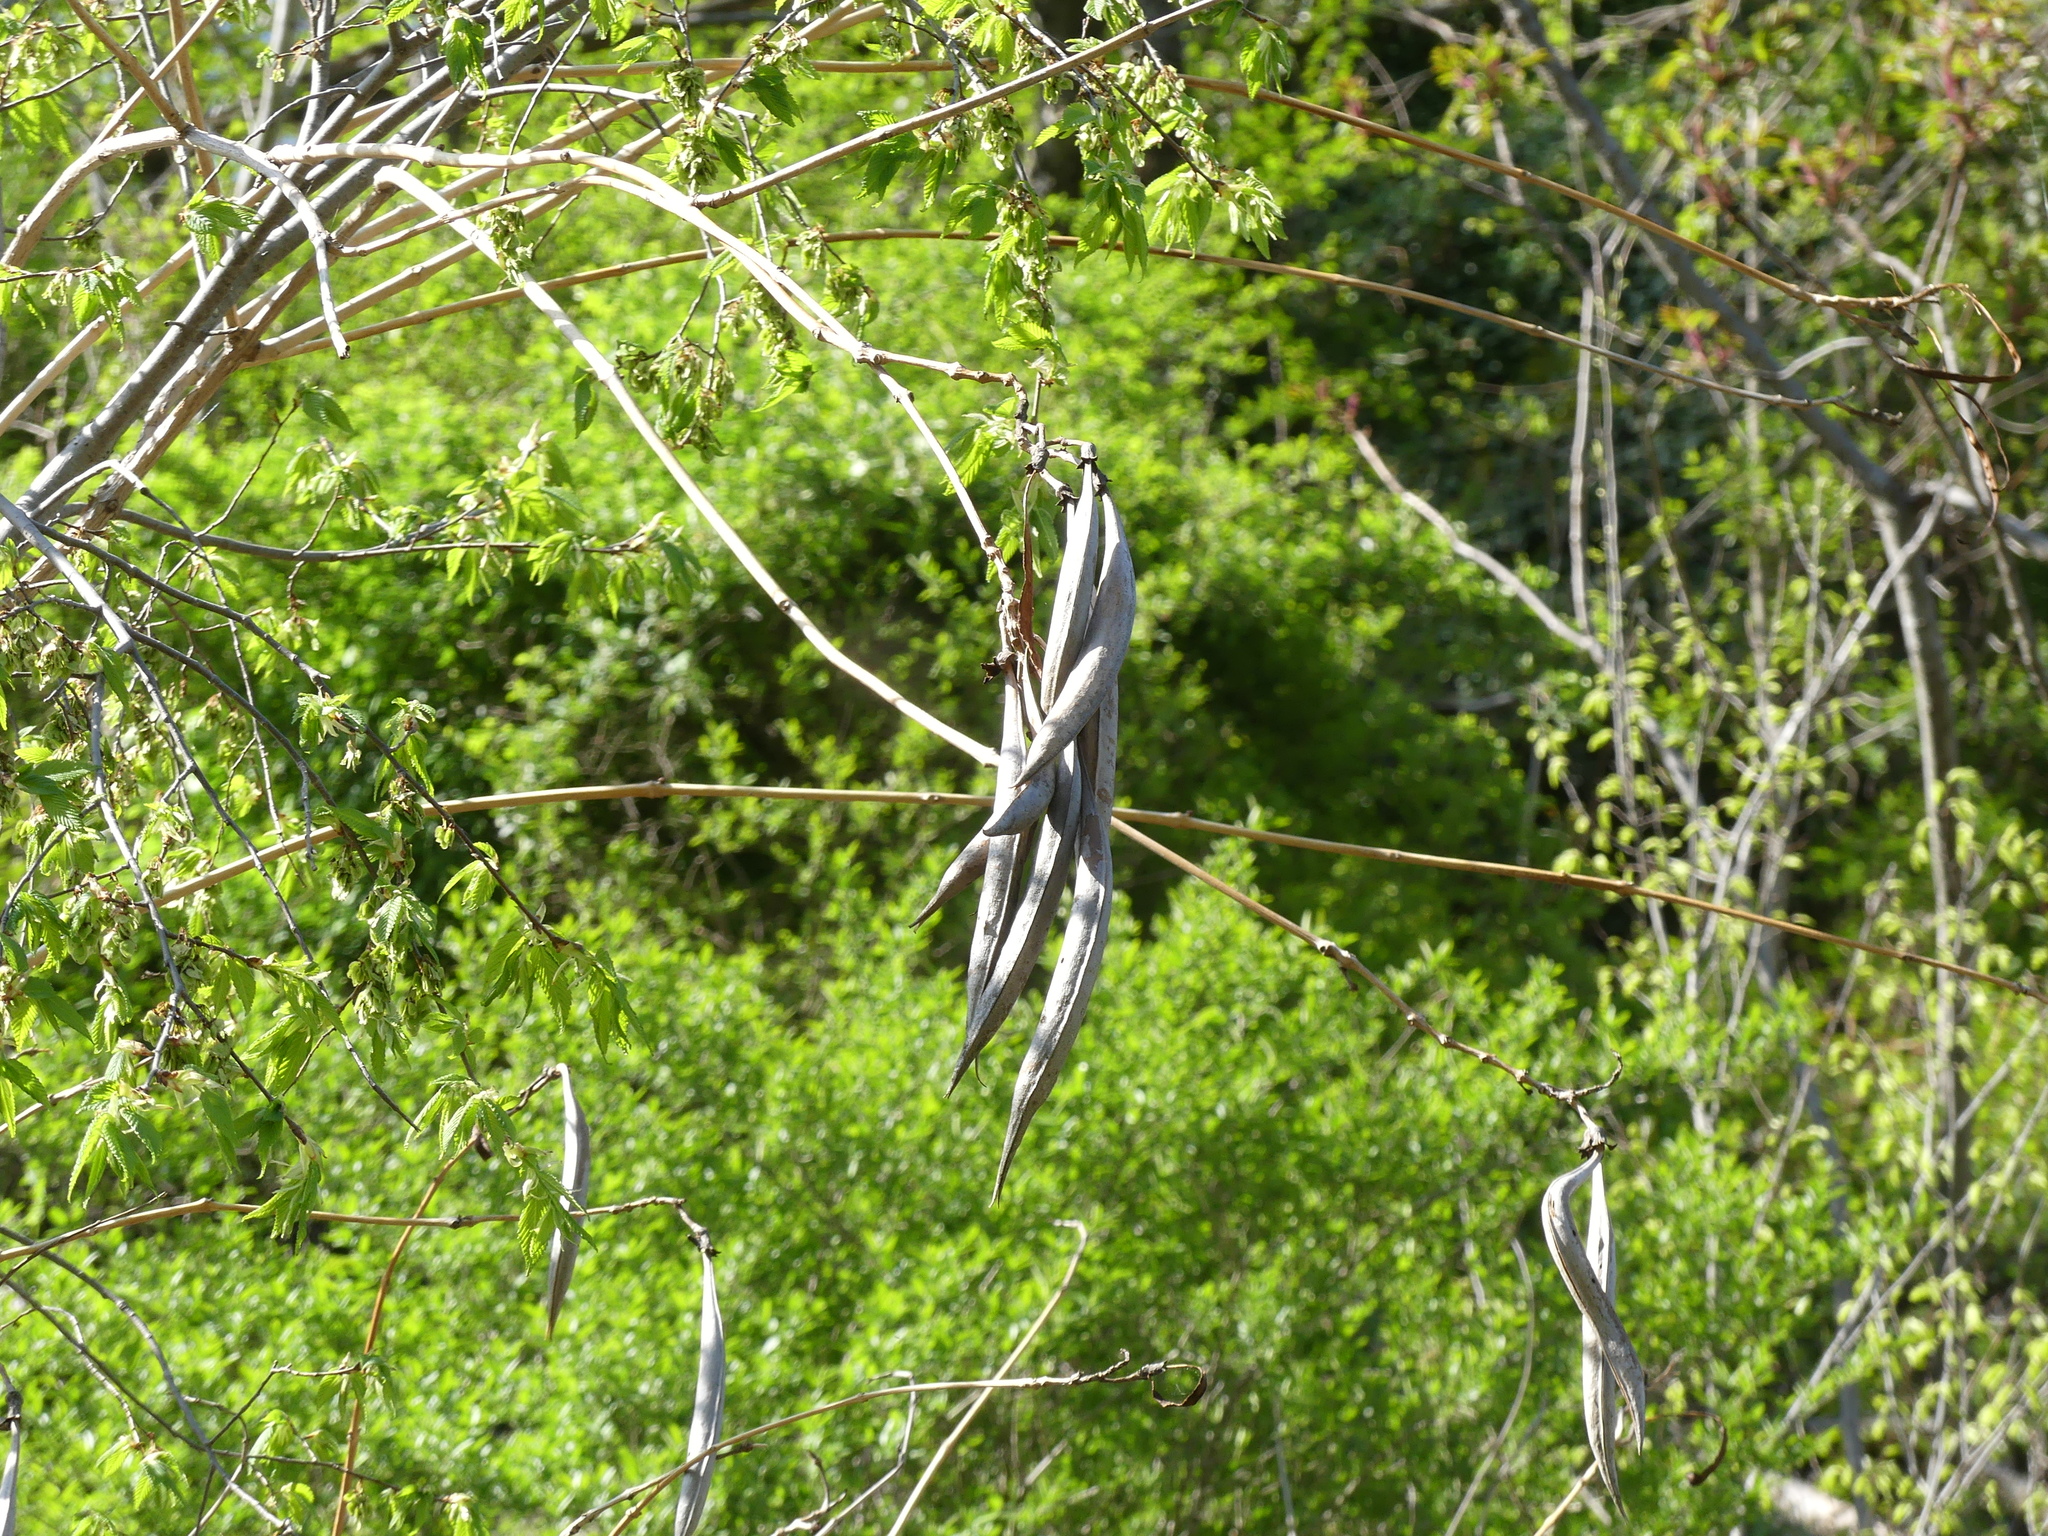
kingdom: Plantae
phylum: Tracheophyta
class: Magnoliopsida
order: Lamiales
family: Bignoniaceae
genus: Campsis
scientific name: Campsis radicans
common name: Trumpet-creeper
